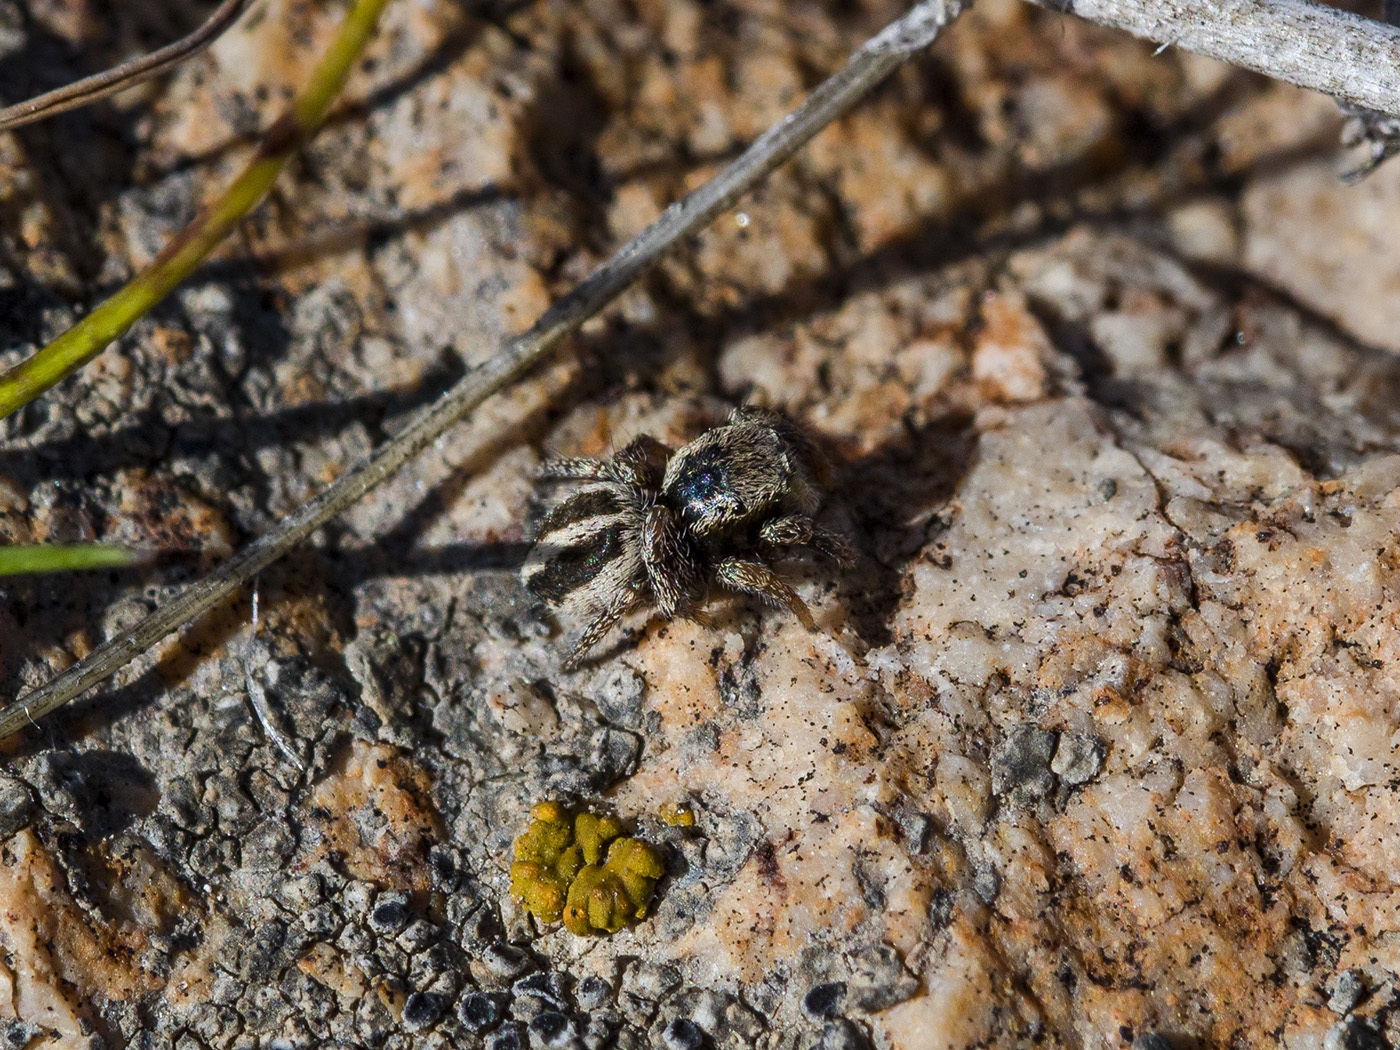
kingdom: Animalia
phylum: Arthropoda
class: Arachnida
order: Araneae
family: Salticidae
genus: Pellenes
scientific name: Pellenes epularis
